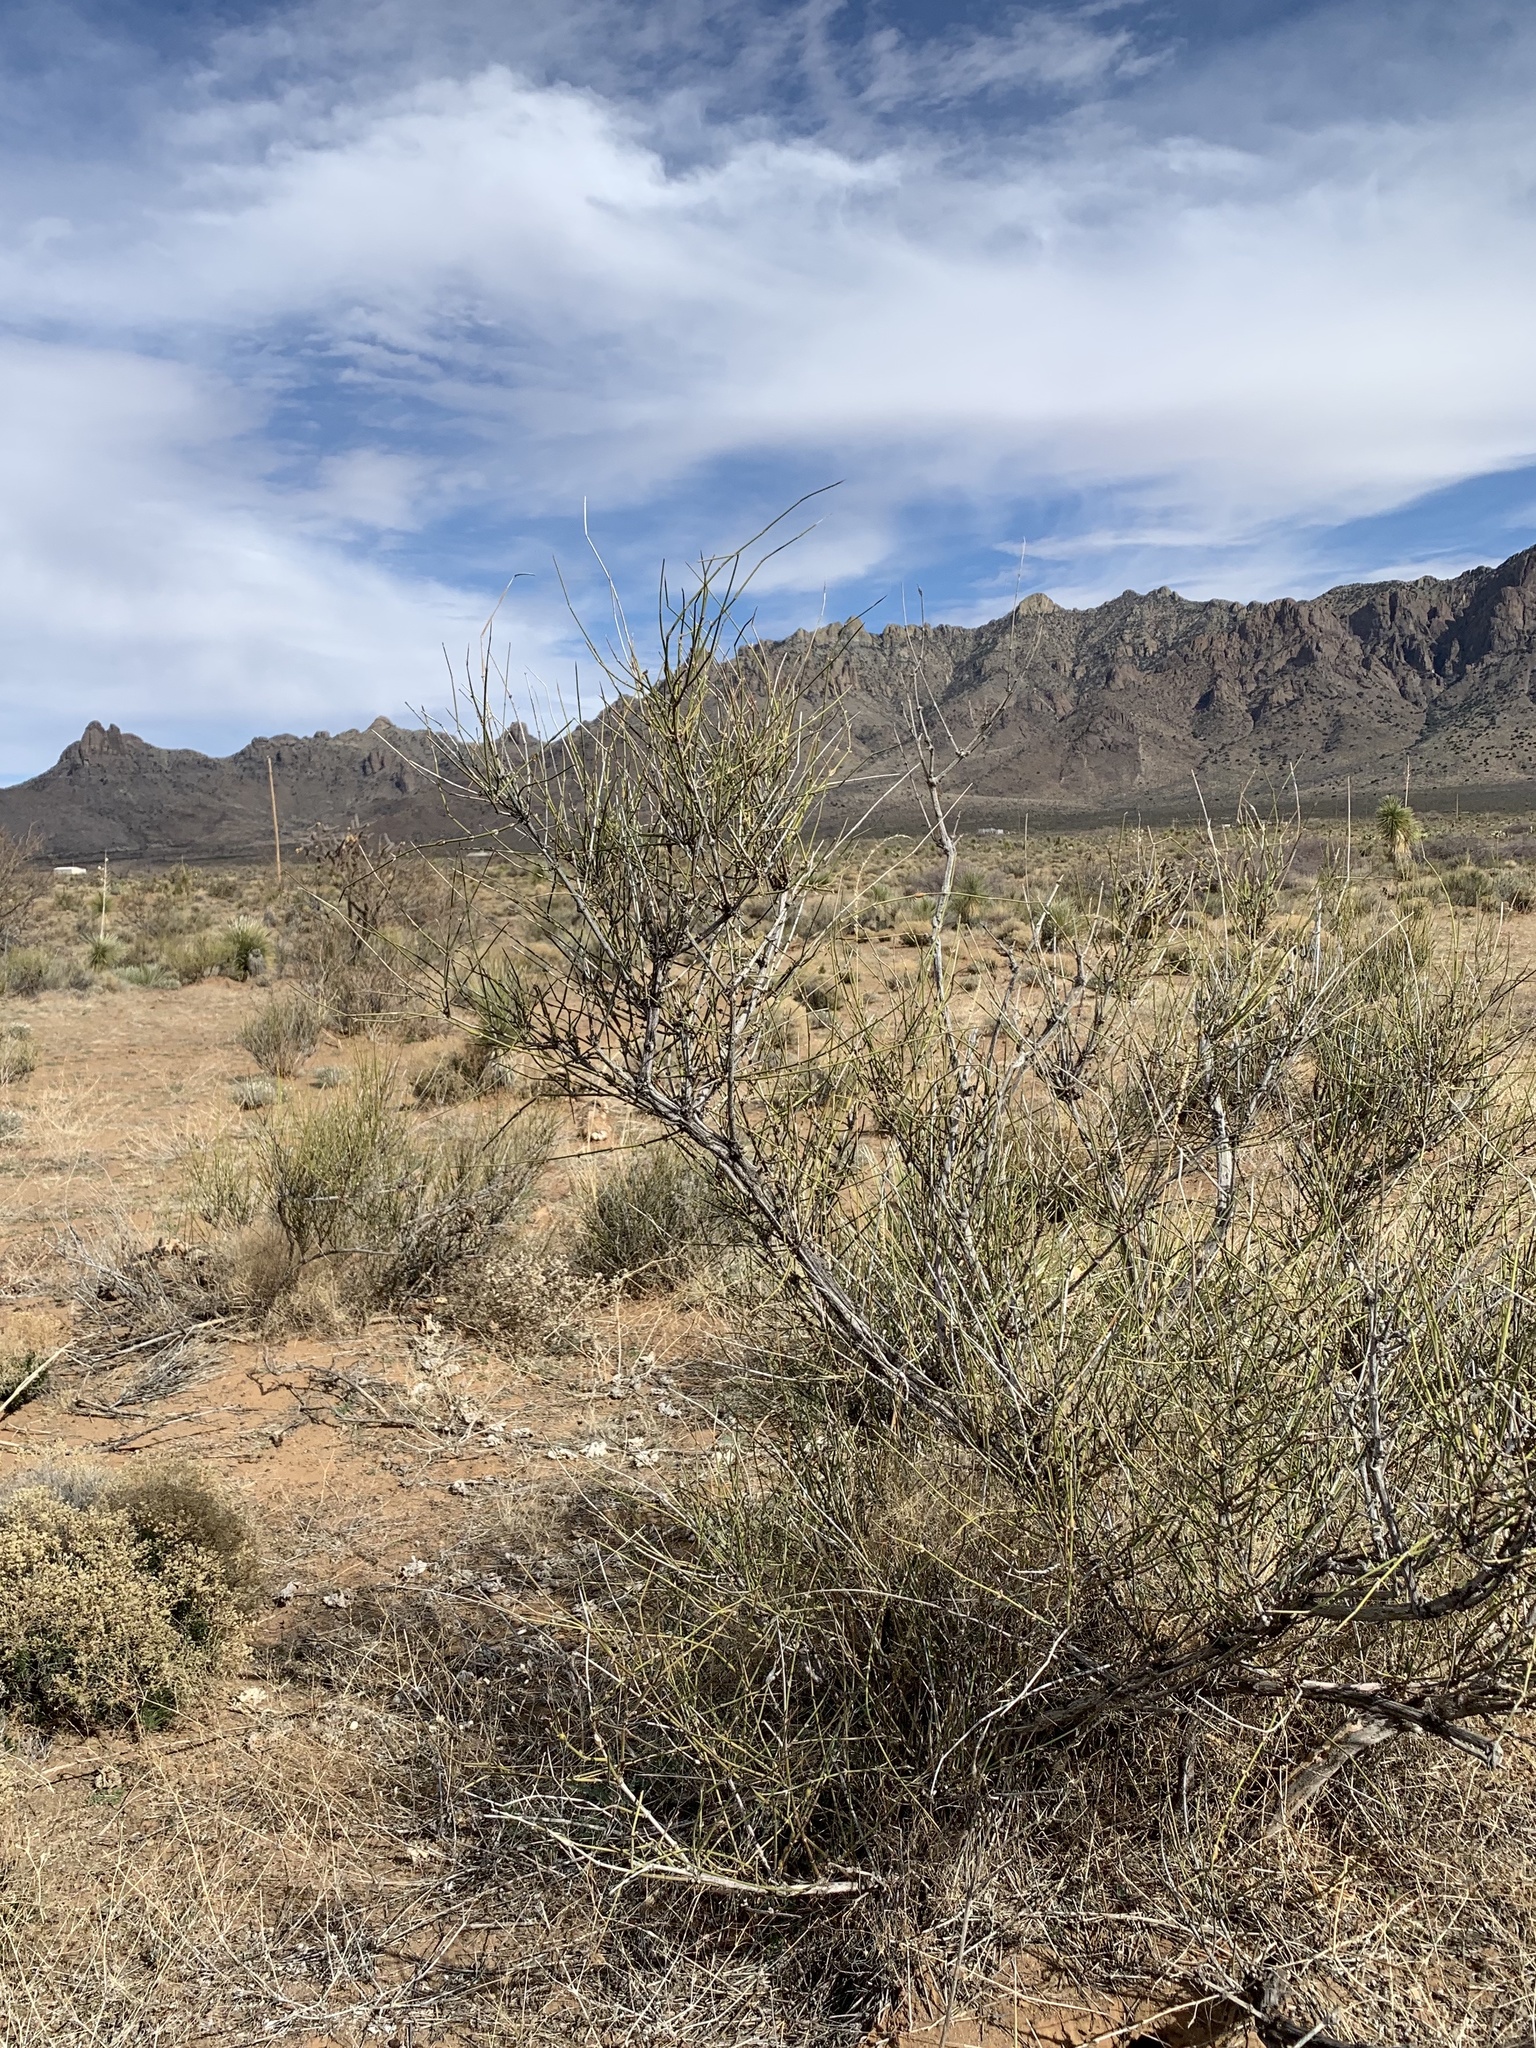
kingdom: Plantae
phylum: Tracheophyta
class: Gnetopsida
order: Ephedrales
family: Ephedraceae
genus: Ephedra
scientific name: Ephedra trifurca
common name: Mexican-tea
